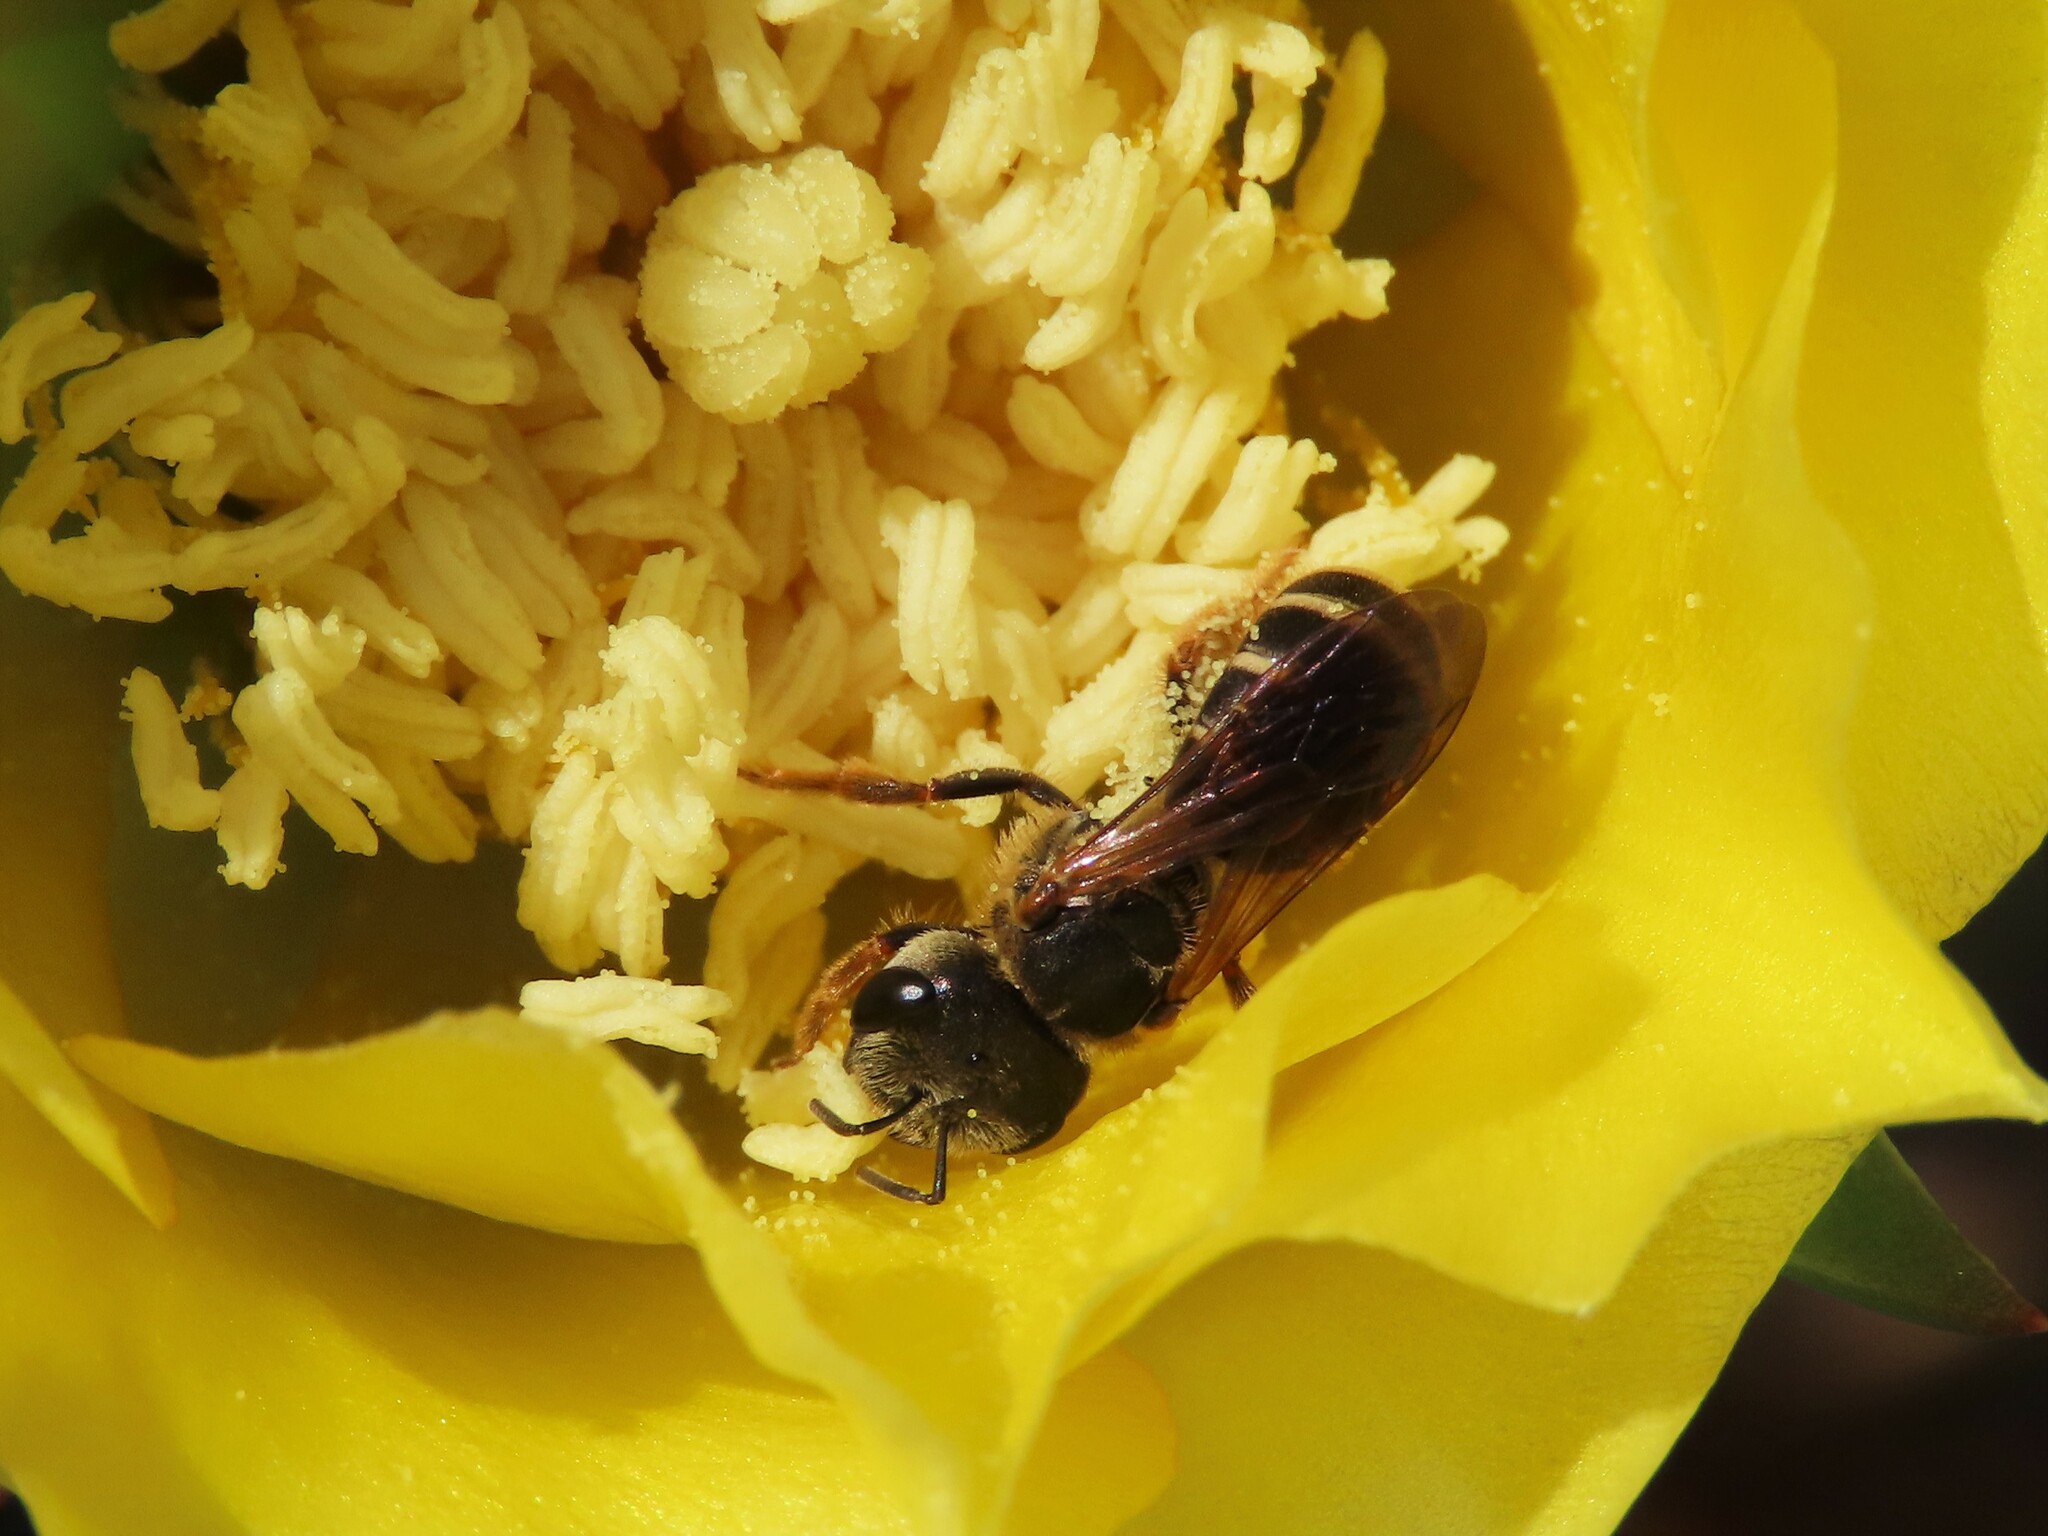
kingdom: Animalia
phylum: Arthropoda
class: Insecta
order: Hymenoptera
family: Halictidae
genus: Halictus
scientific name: Halictus poeyi
